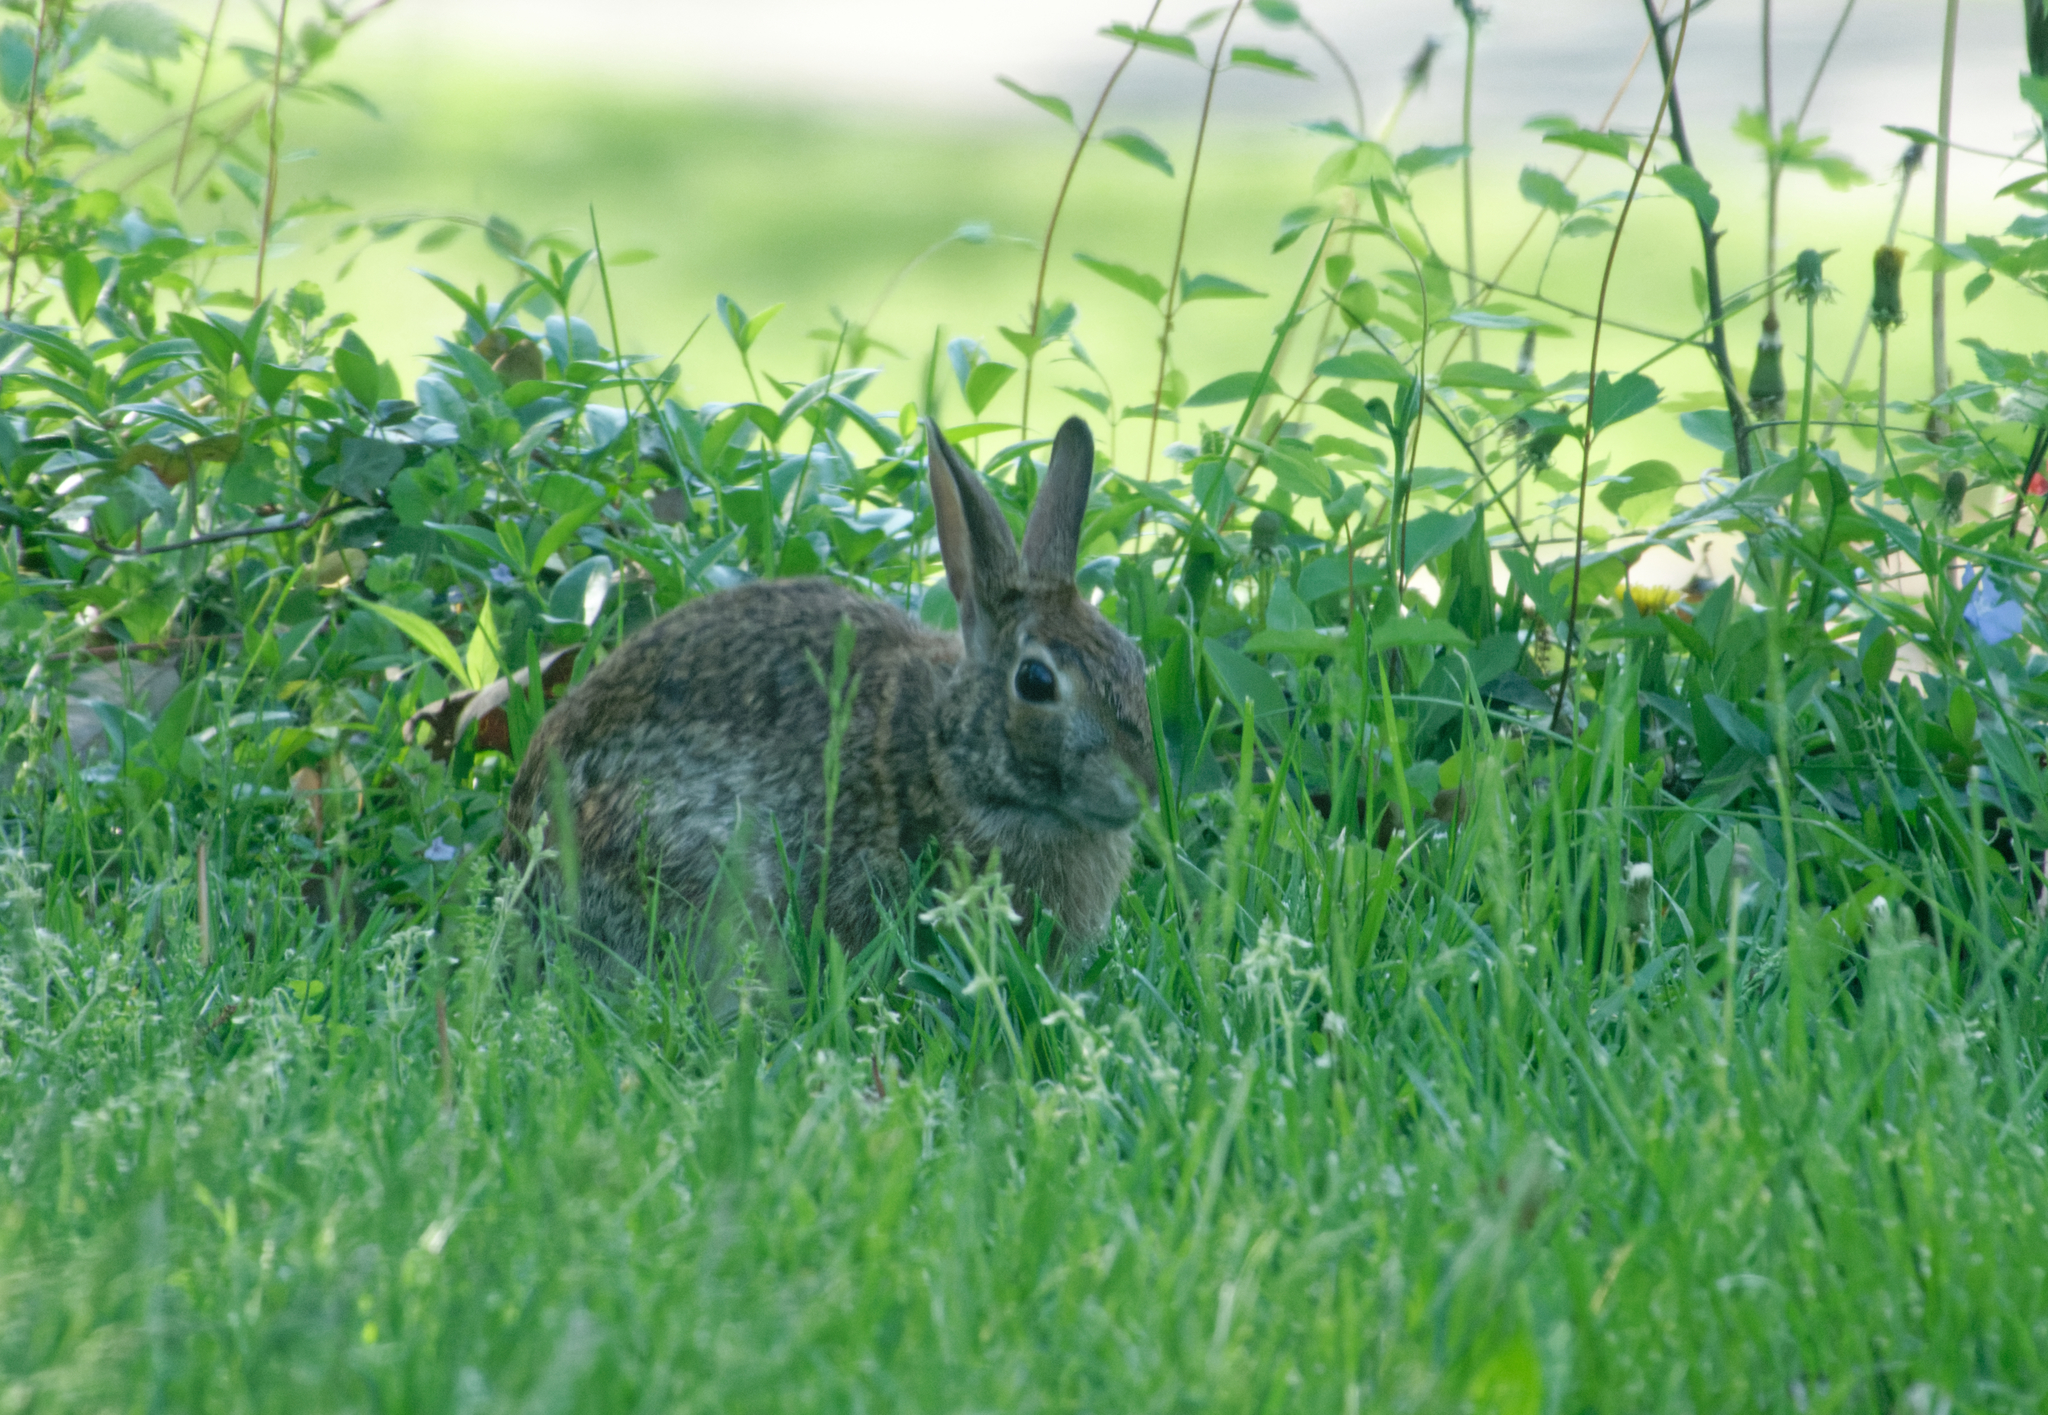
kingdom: Animalia
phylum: Chordata
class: Mammalia
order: Lagomorpha
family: Leporidae
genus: Sylvilagus
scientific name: Sylvilagus floridanus
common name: Eastern cottontail
